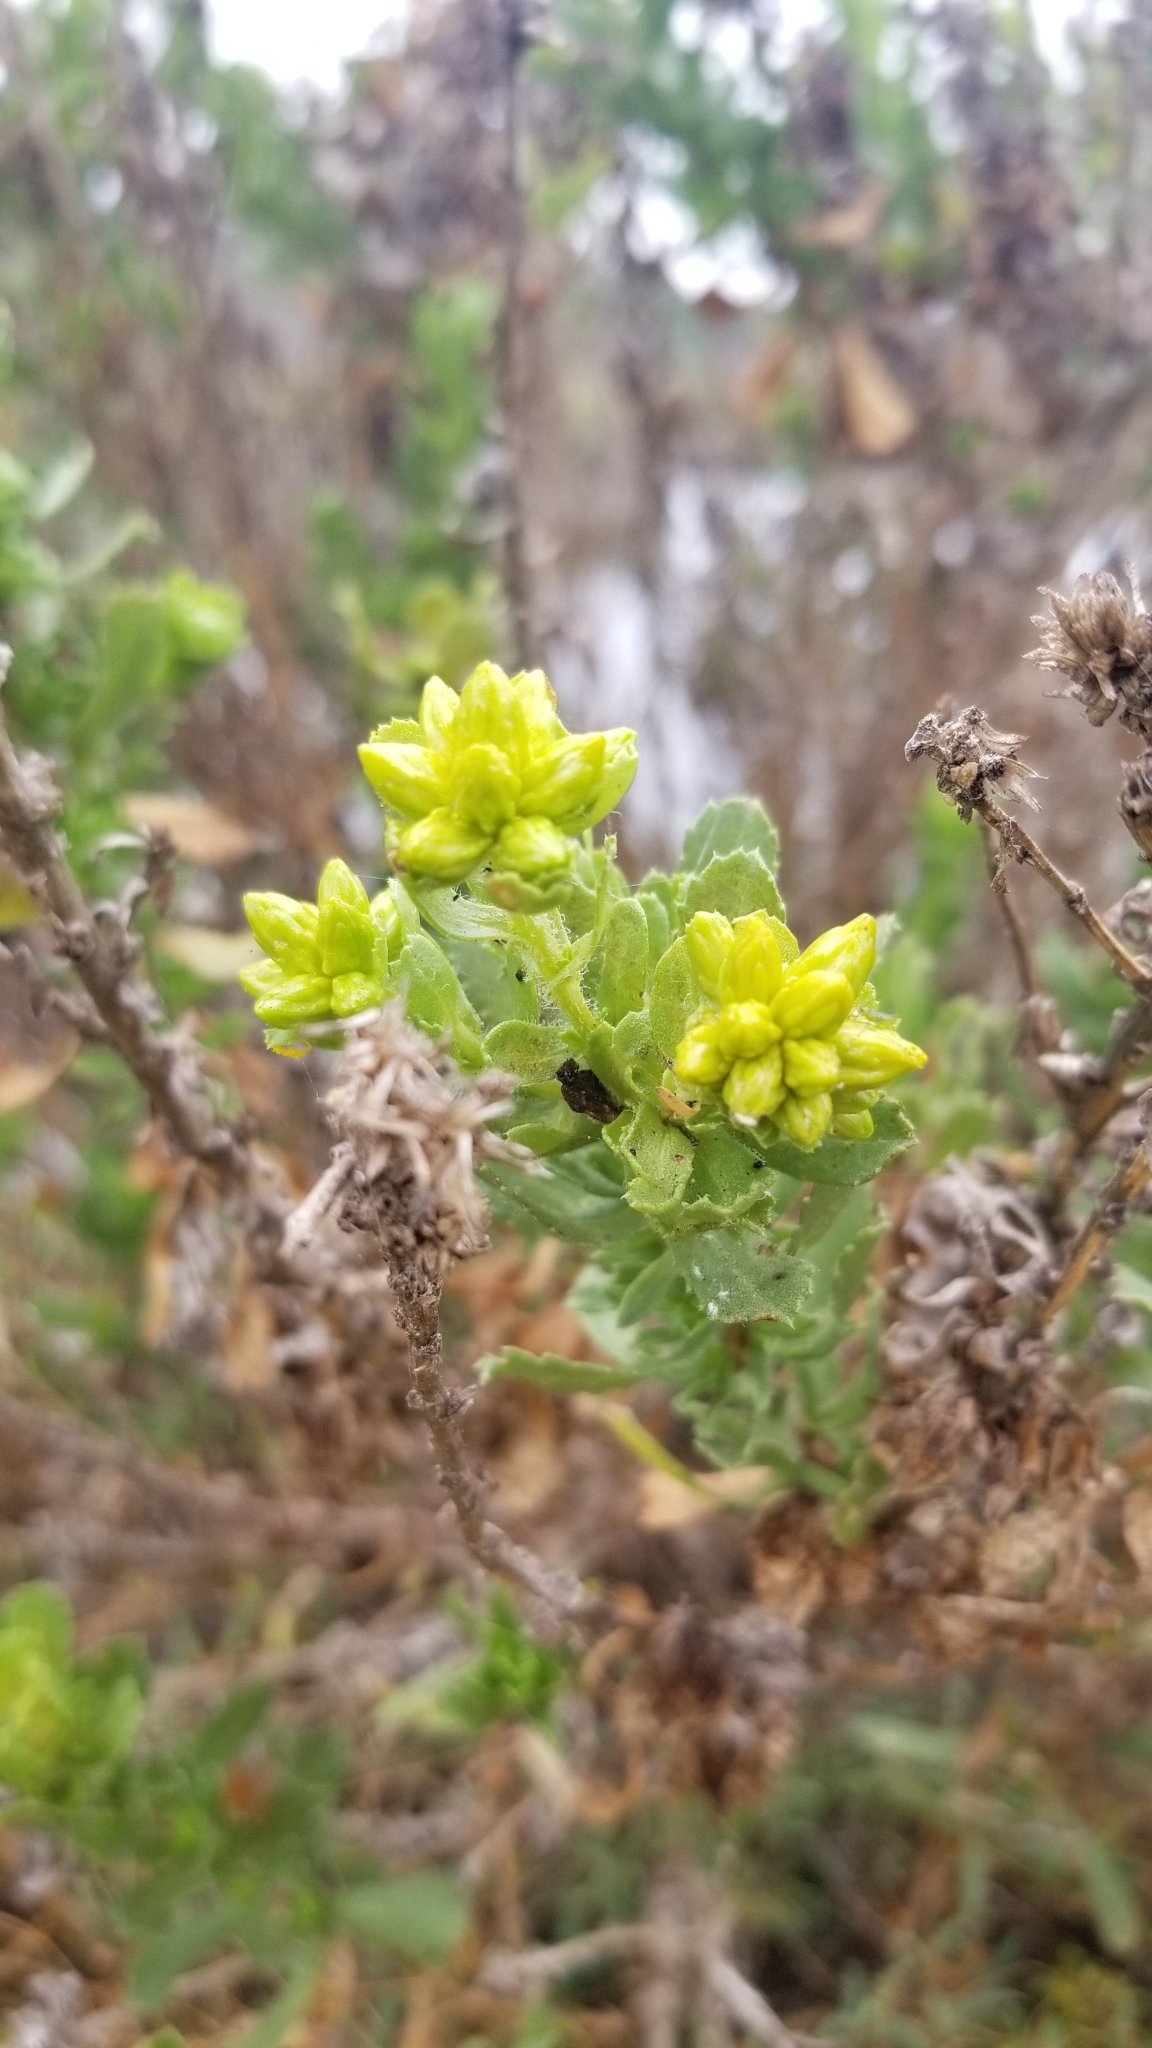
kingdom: Plantae
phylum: Tracheophyta
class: Magnoliopsida
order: Asterales
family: Asteraceae
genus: Isocoma
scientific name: Isocoma menziesii
